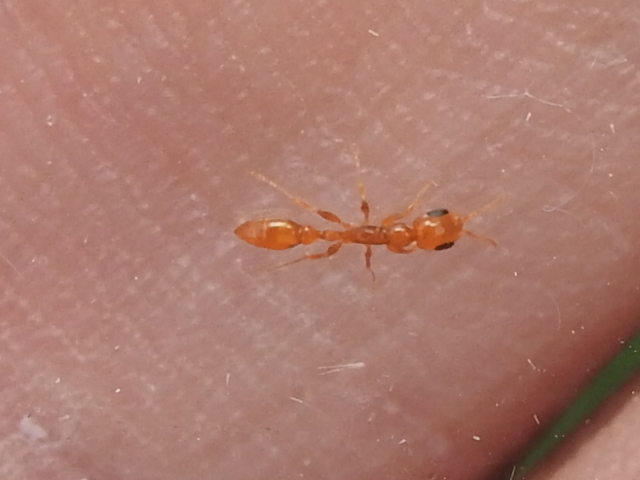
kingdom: Animalia
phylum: Arthropoda
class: Insecta
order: Hymenoptera
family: Formicidae
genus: Pseudomyrmex
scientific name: Pseudomyrmex pallidus
